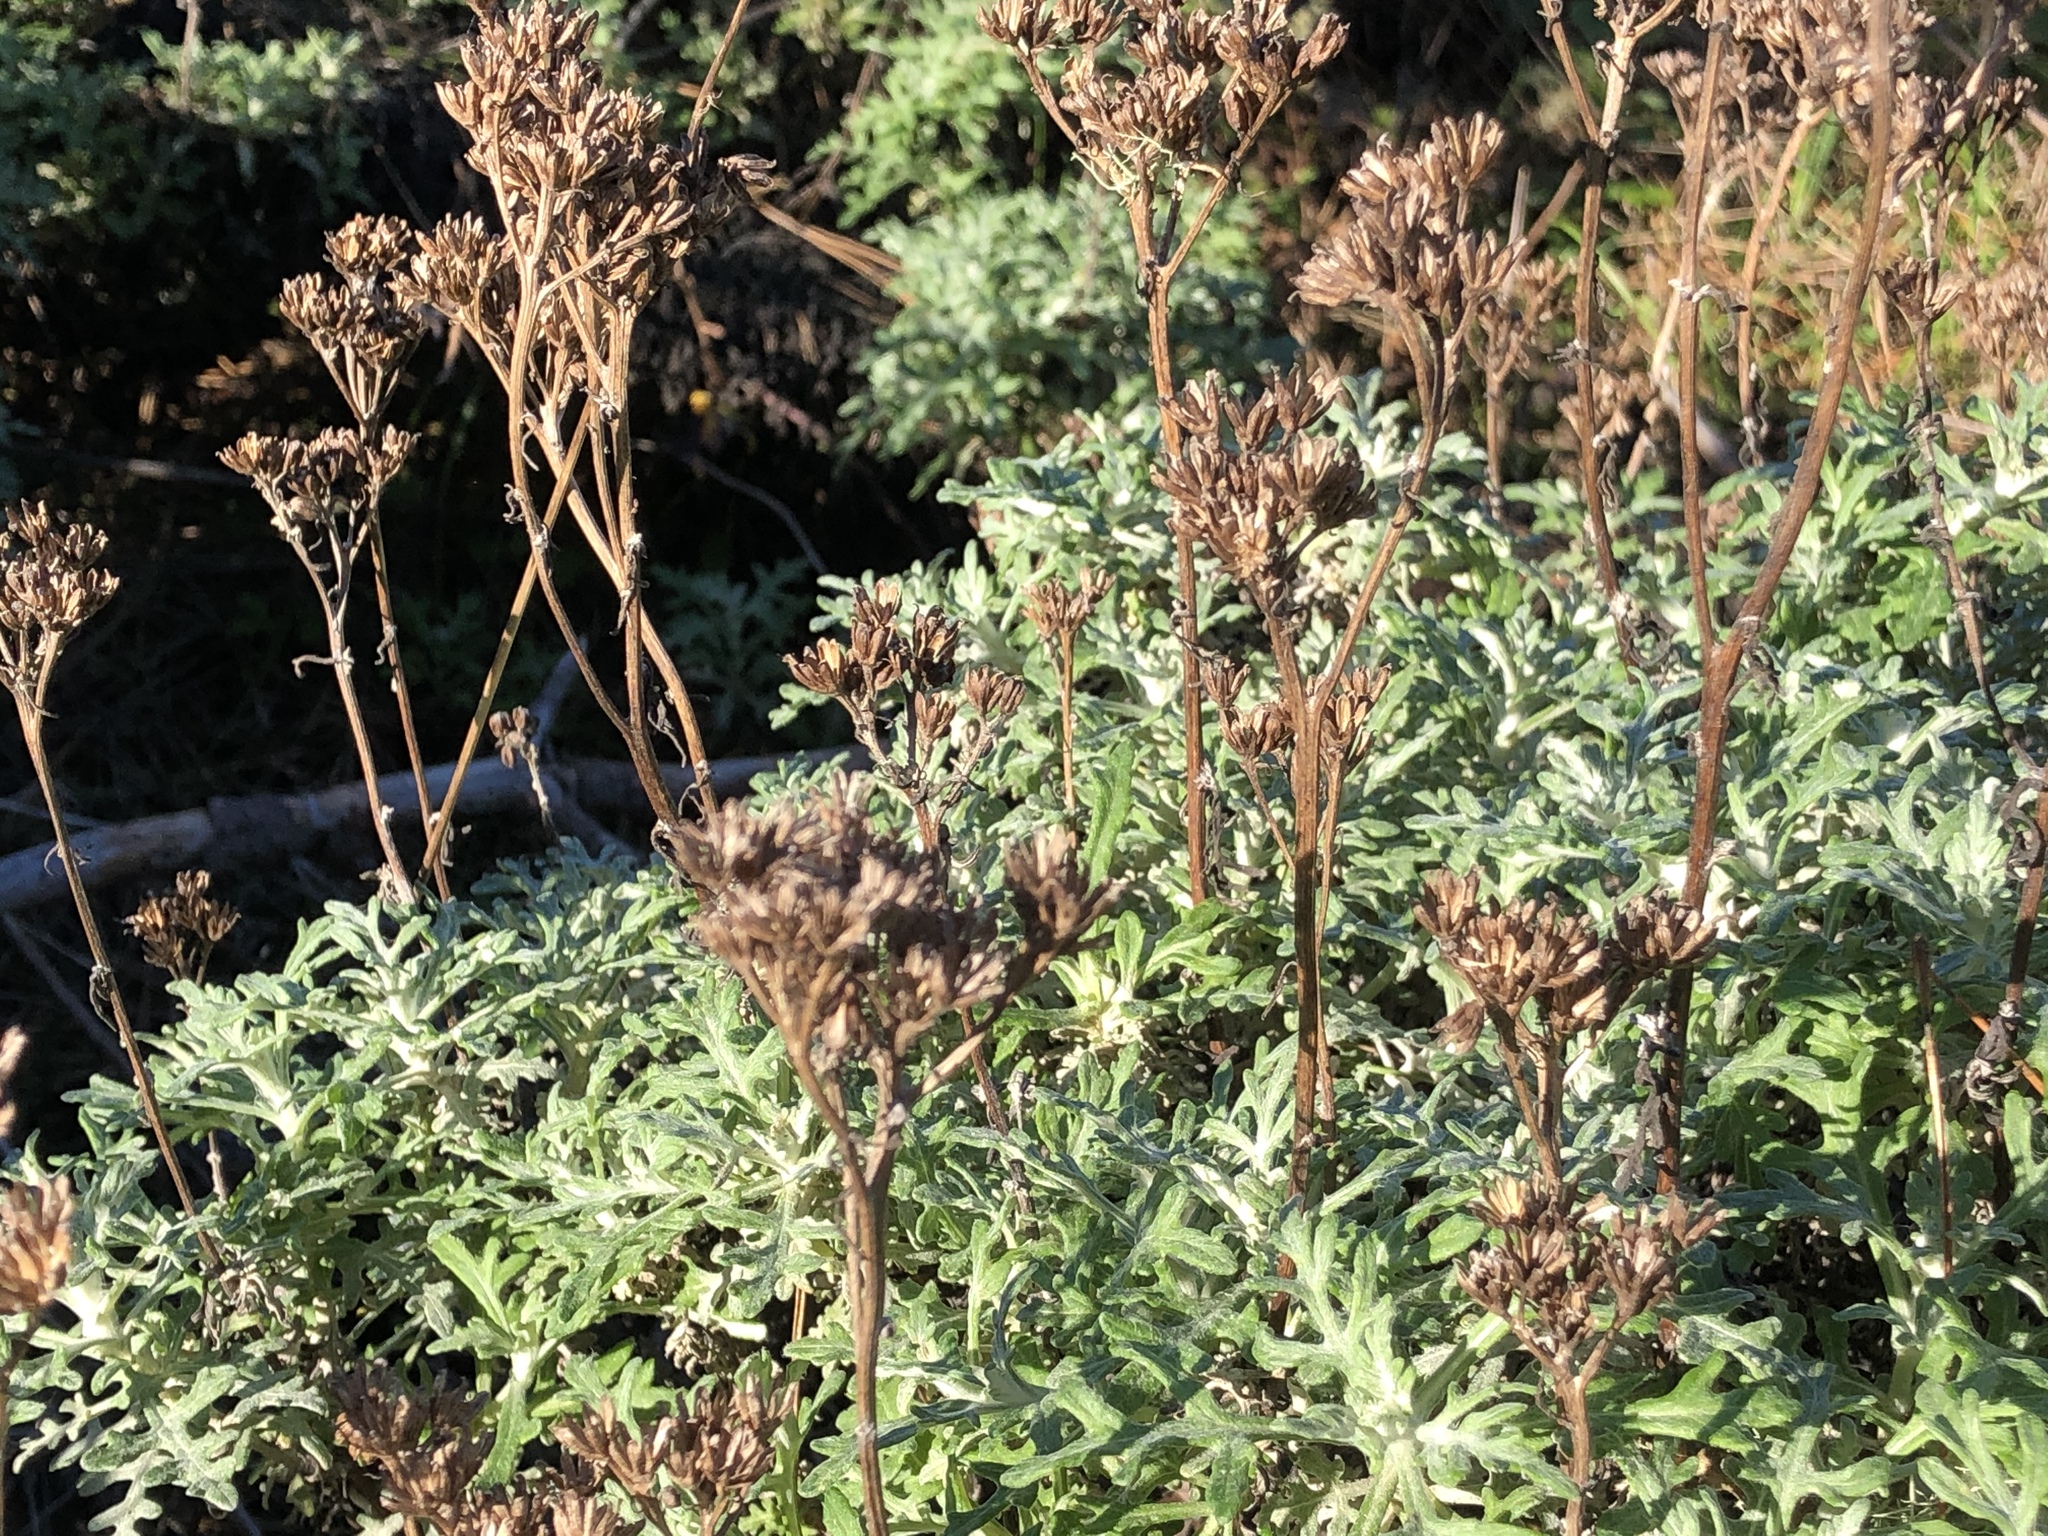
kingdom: Plantae
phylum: Tracheophyta
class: Magnoliopsida
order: Asterales
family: Asteraceae
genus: Eriophyllum
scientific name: Eriophyllum staechadifolium
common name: Lizardtail
